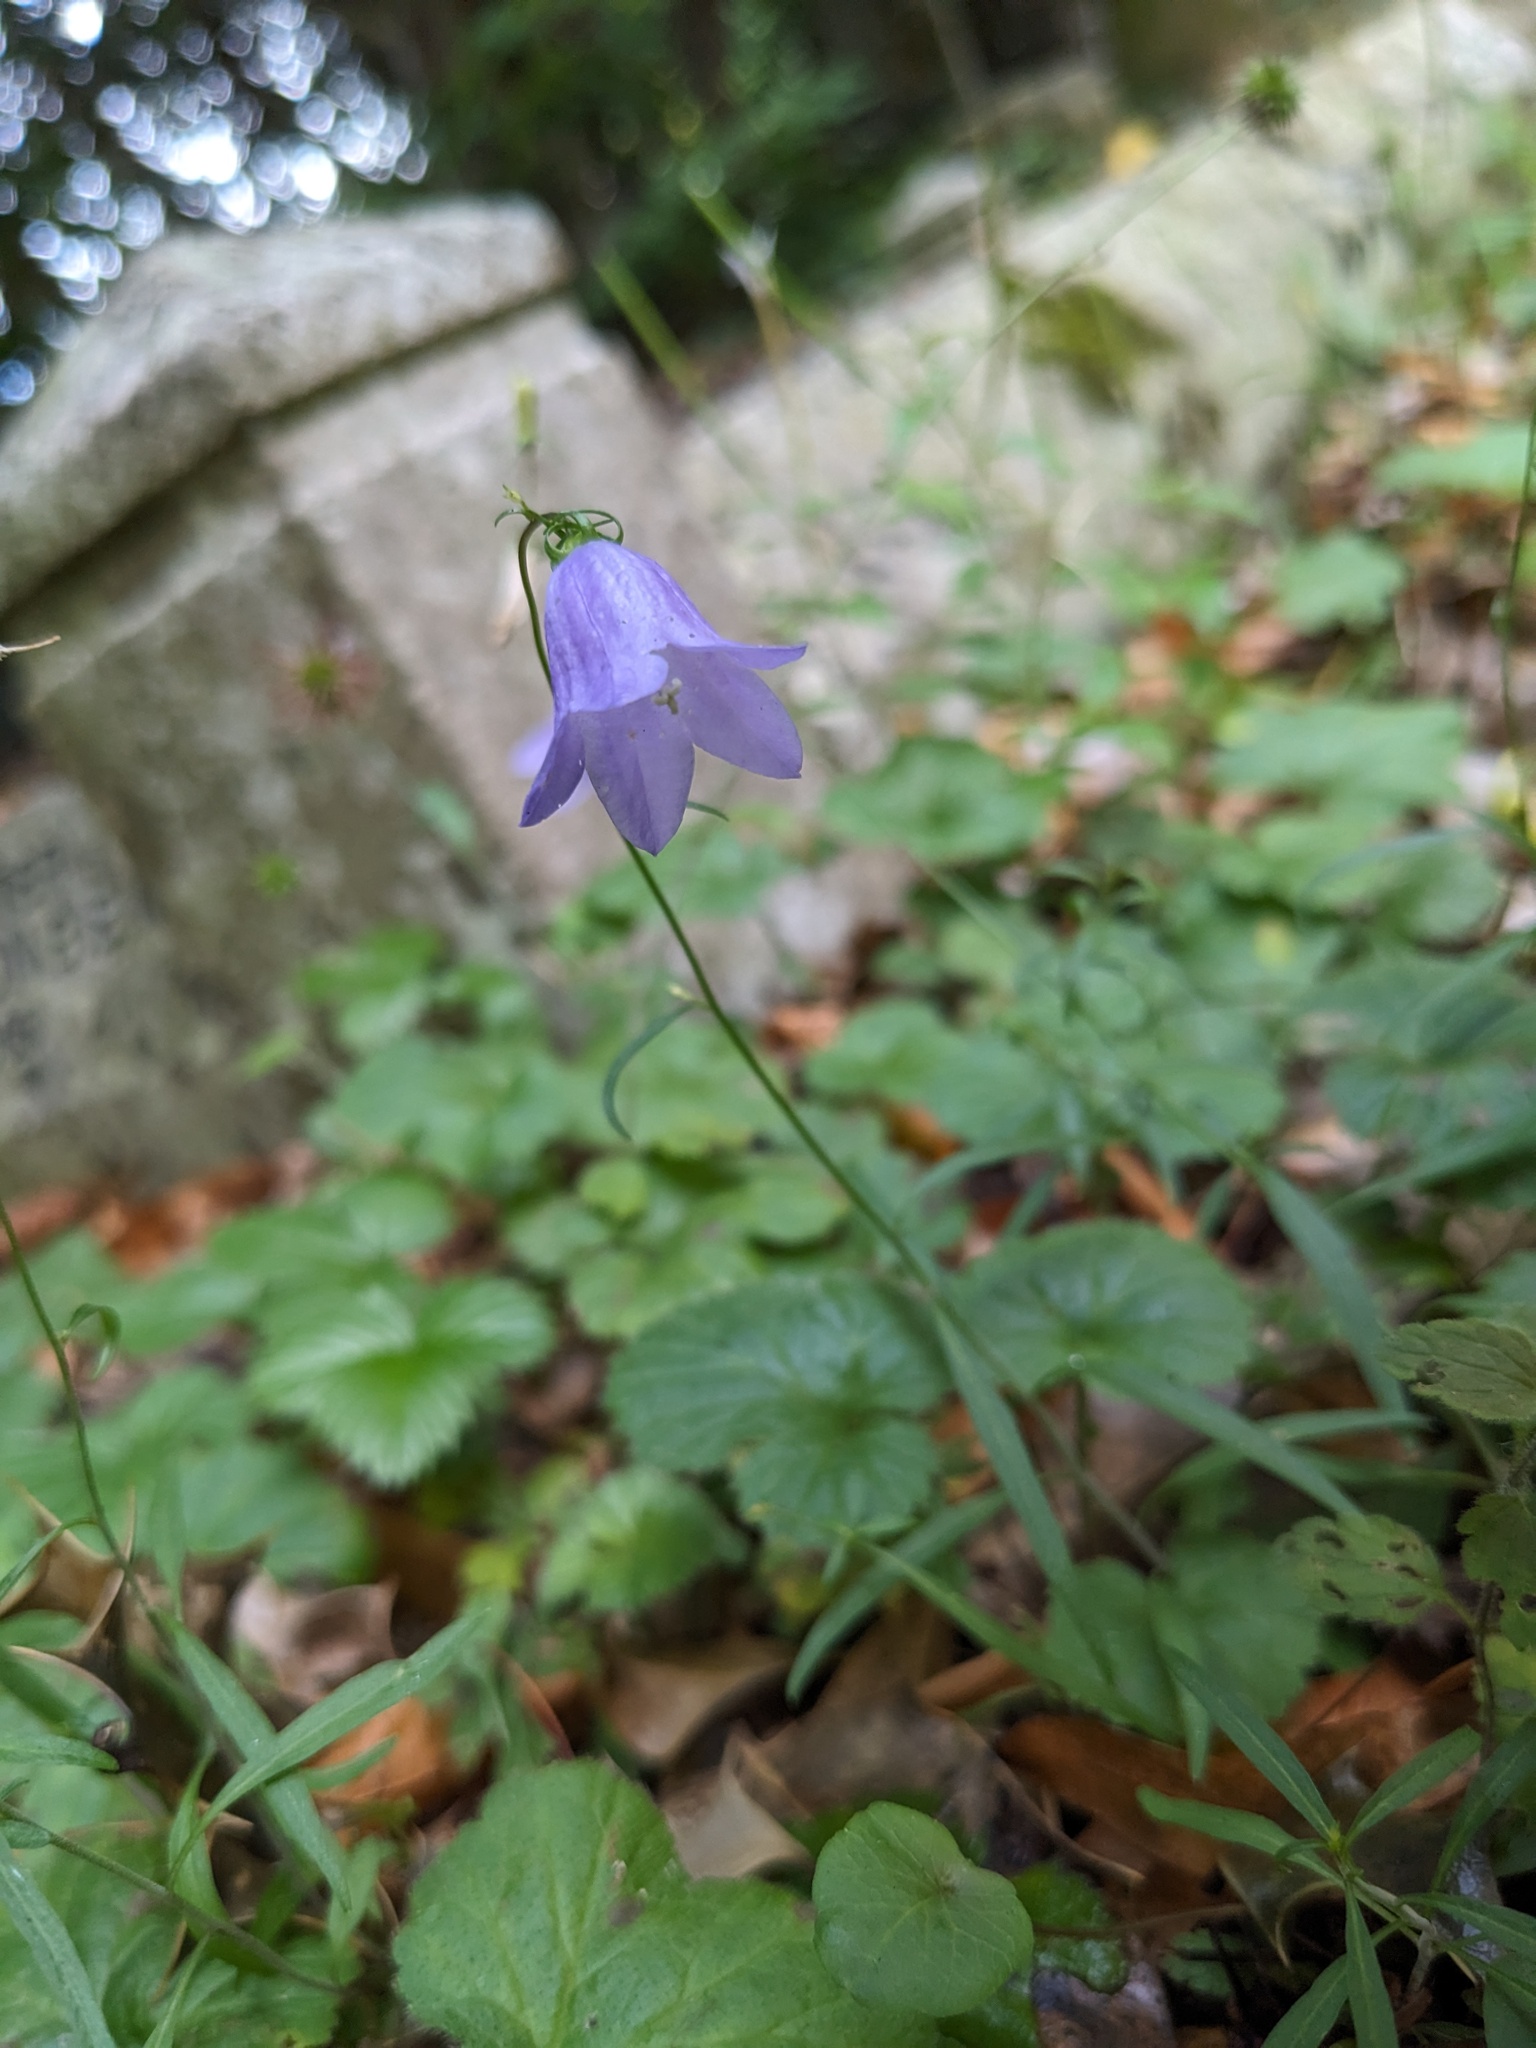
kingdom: Plantae
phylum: Tracheophyta
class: Magnoliopsida
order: Asterales
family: Campanulaceae
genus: Campanula
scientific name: Campanula rotundifolia
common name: Harebell
